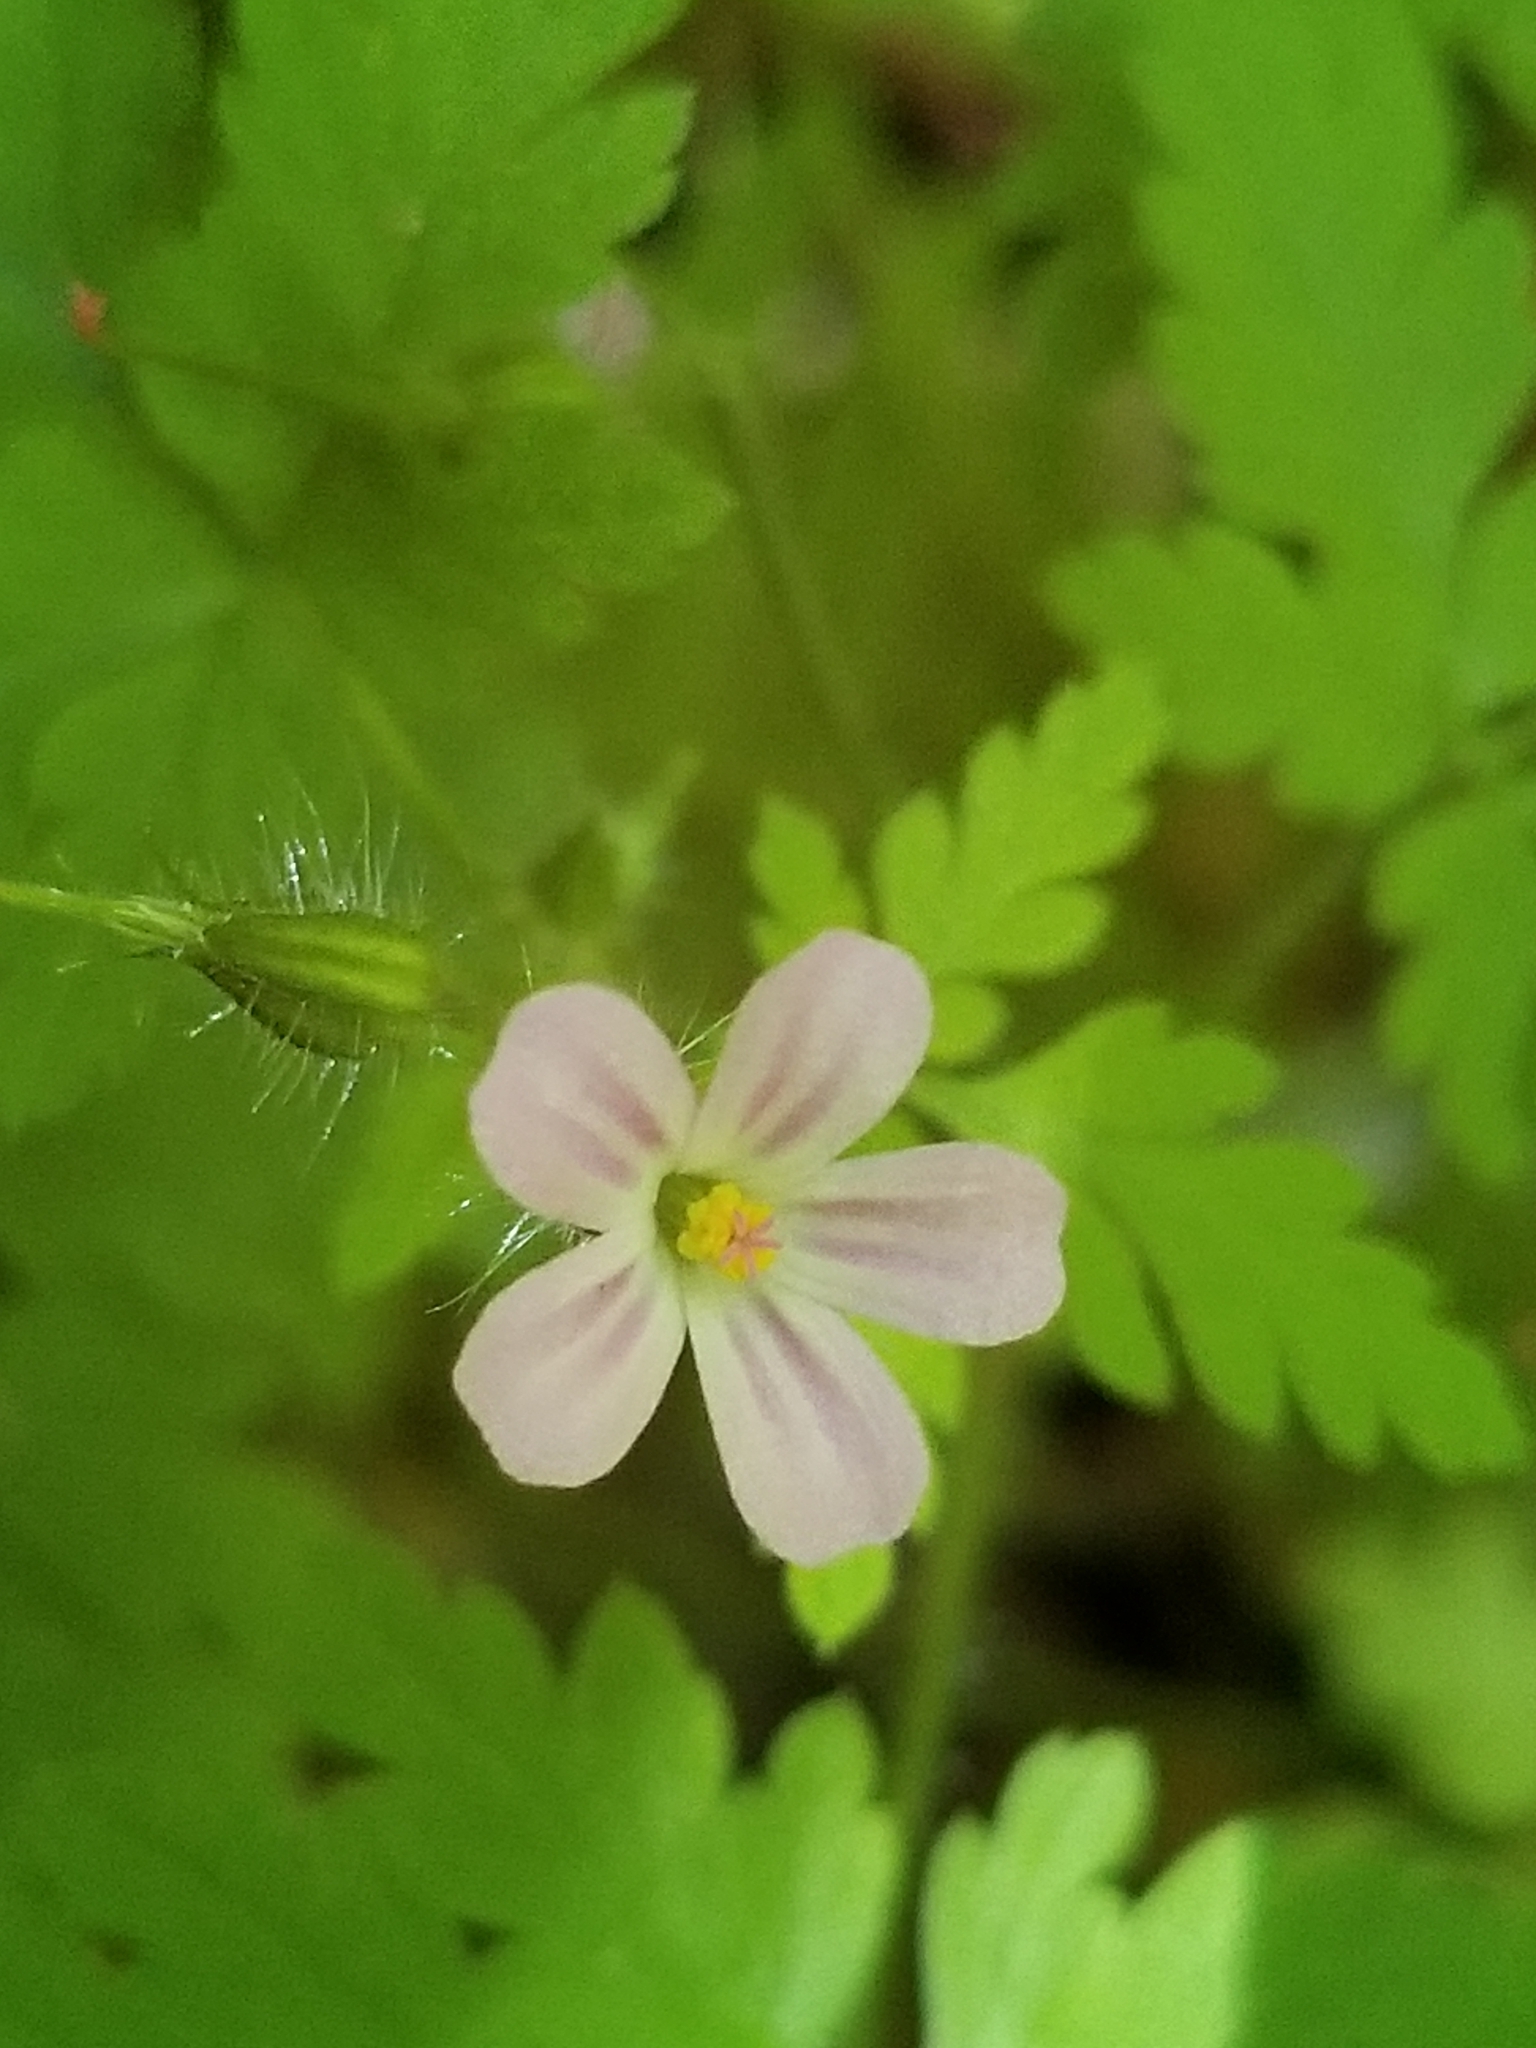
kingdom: Plantae
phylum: Tracheophyta
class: Magnoliopsida
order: Geraniales
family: Geraniaceae
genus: Geranium
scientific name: Geranium robertianum
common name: Herb-robert
